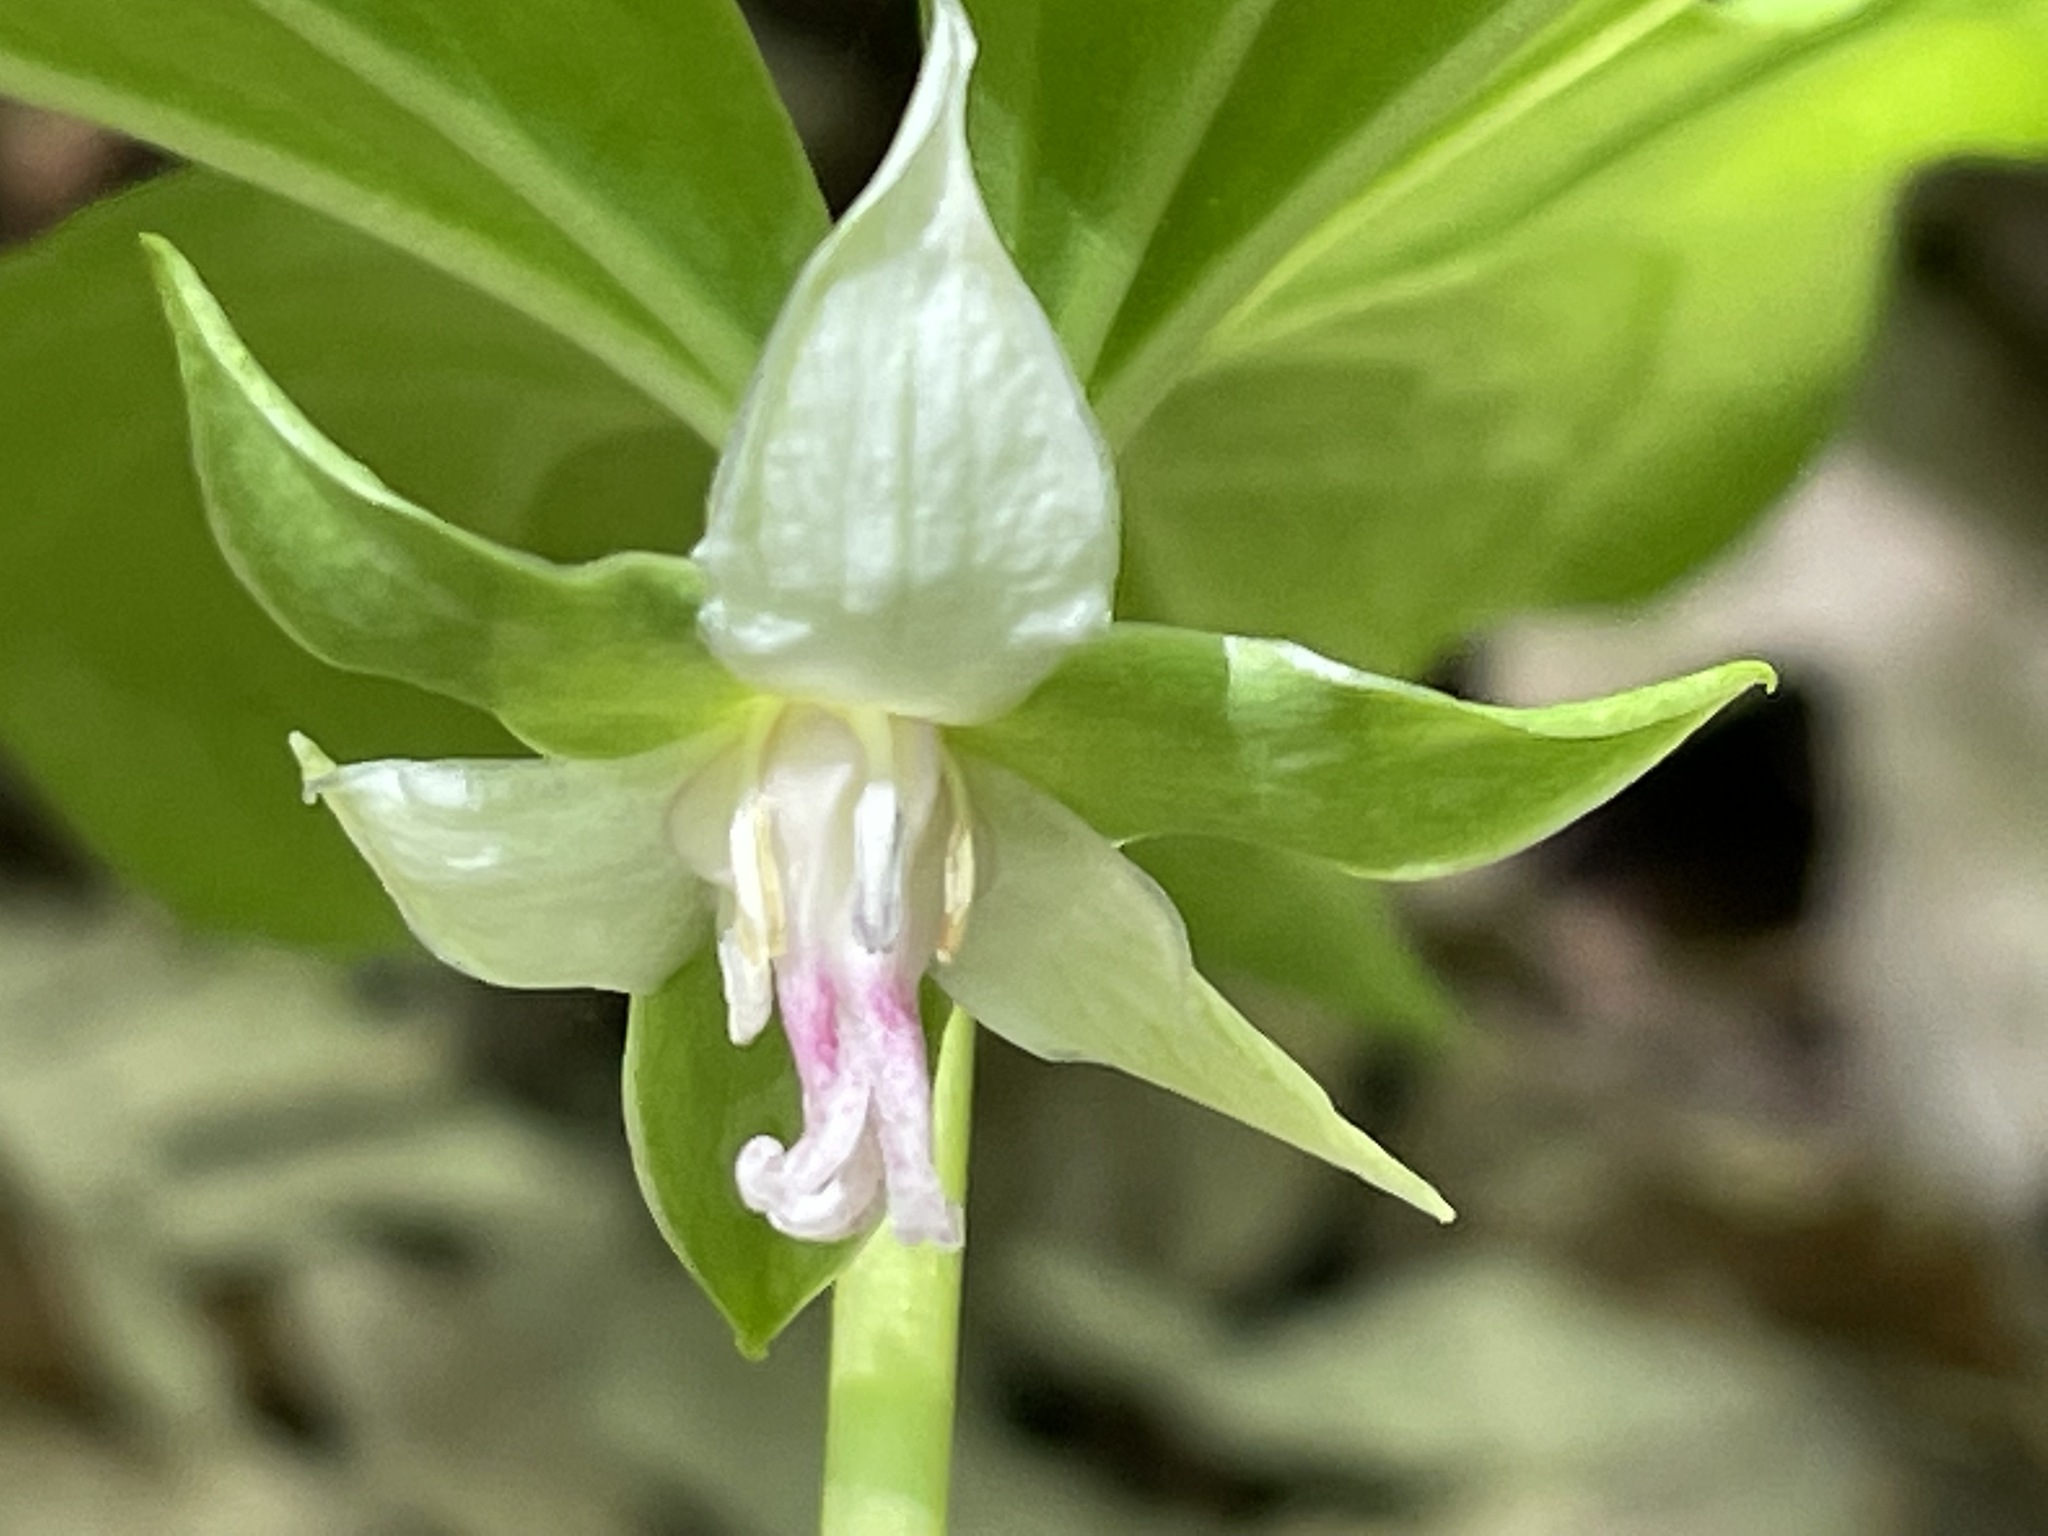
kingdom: Plantae
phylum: Tracheophyta
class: Liliopsida
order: Liliales
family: Melanthiaceae
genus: Trillium
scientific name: Trillium cernuum
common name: Nodding trillium
